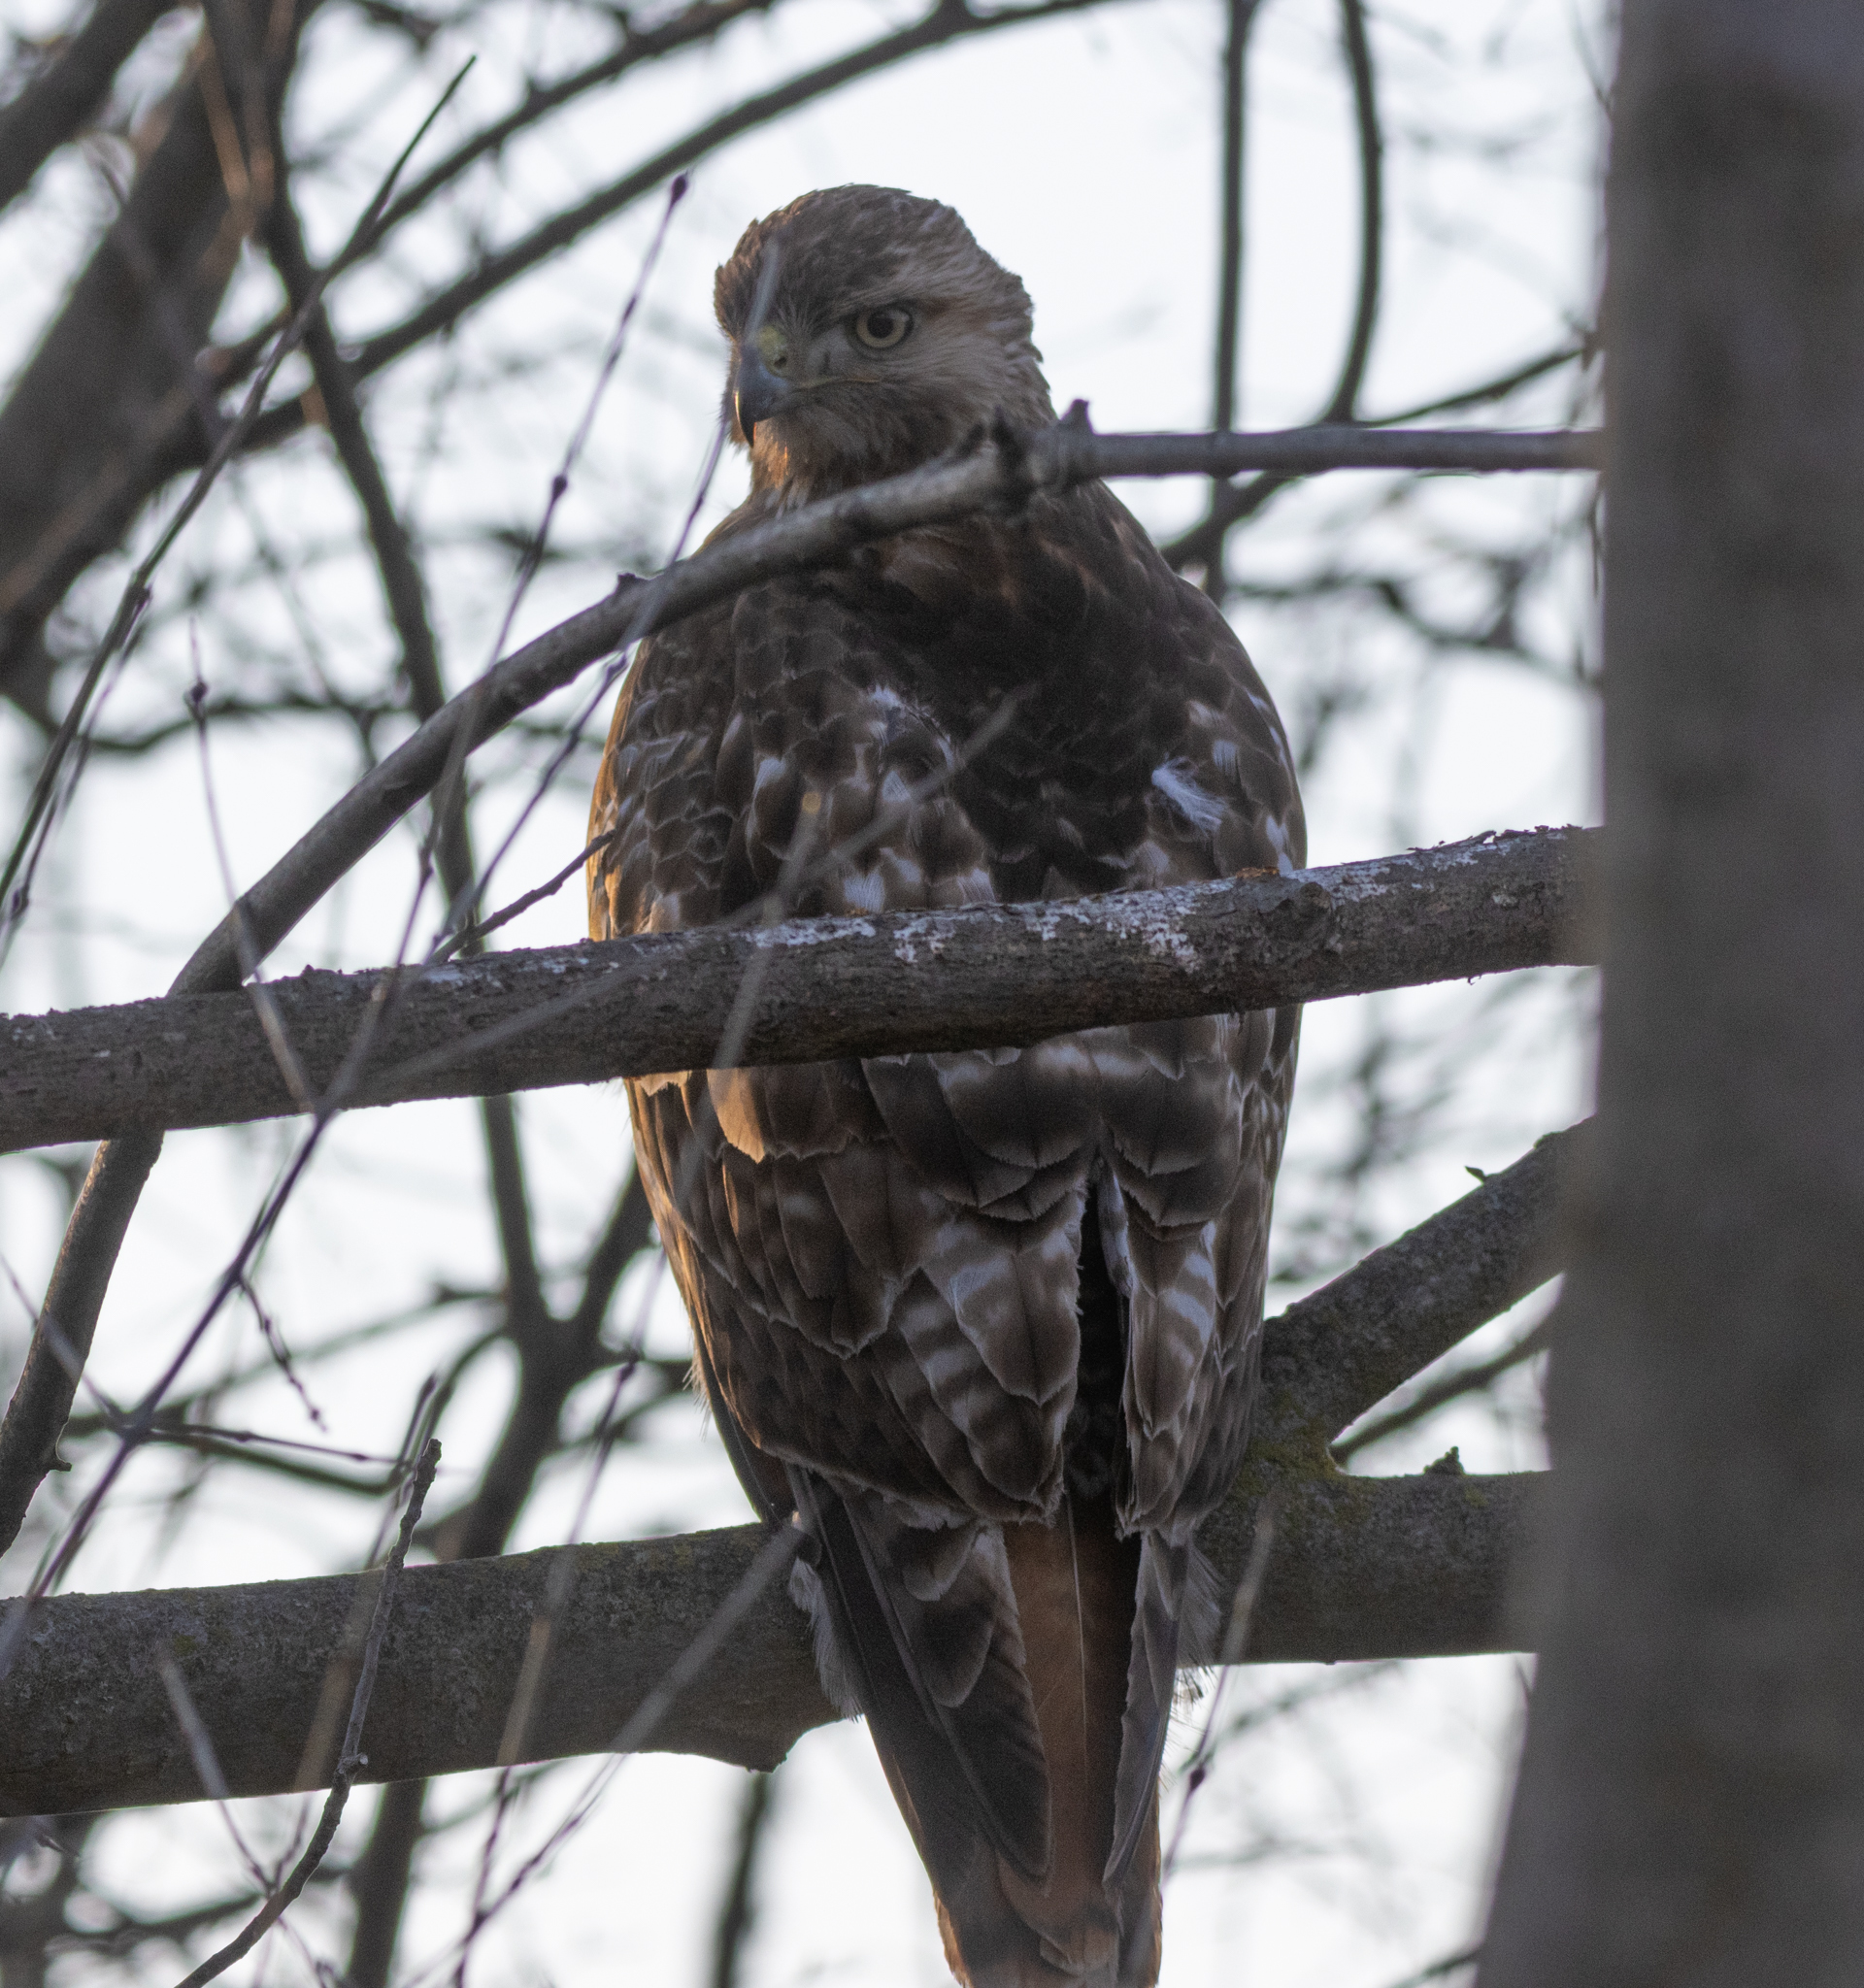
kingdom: Animalia
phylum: Chordata
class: Aves
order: Accipitriformes
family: Accipitridae
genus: Buteo
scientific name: Buteo jamaicensis
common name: Red-tailed hawk
